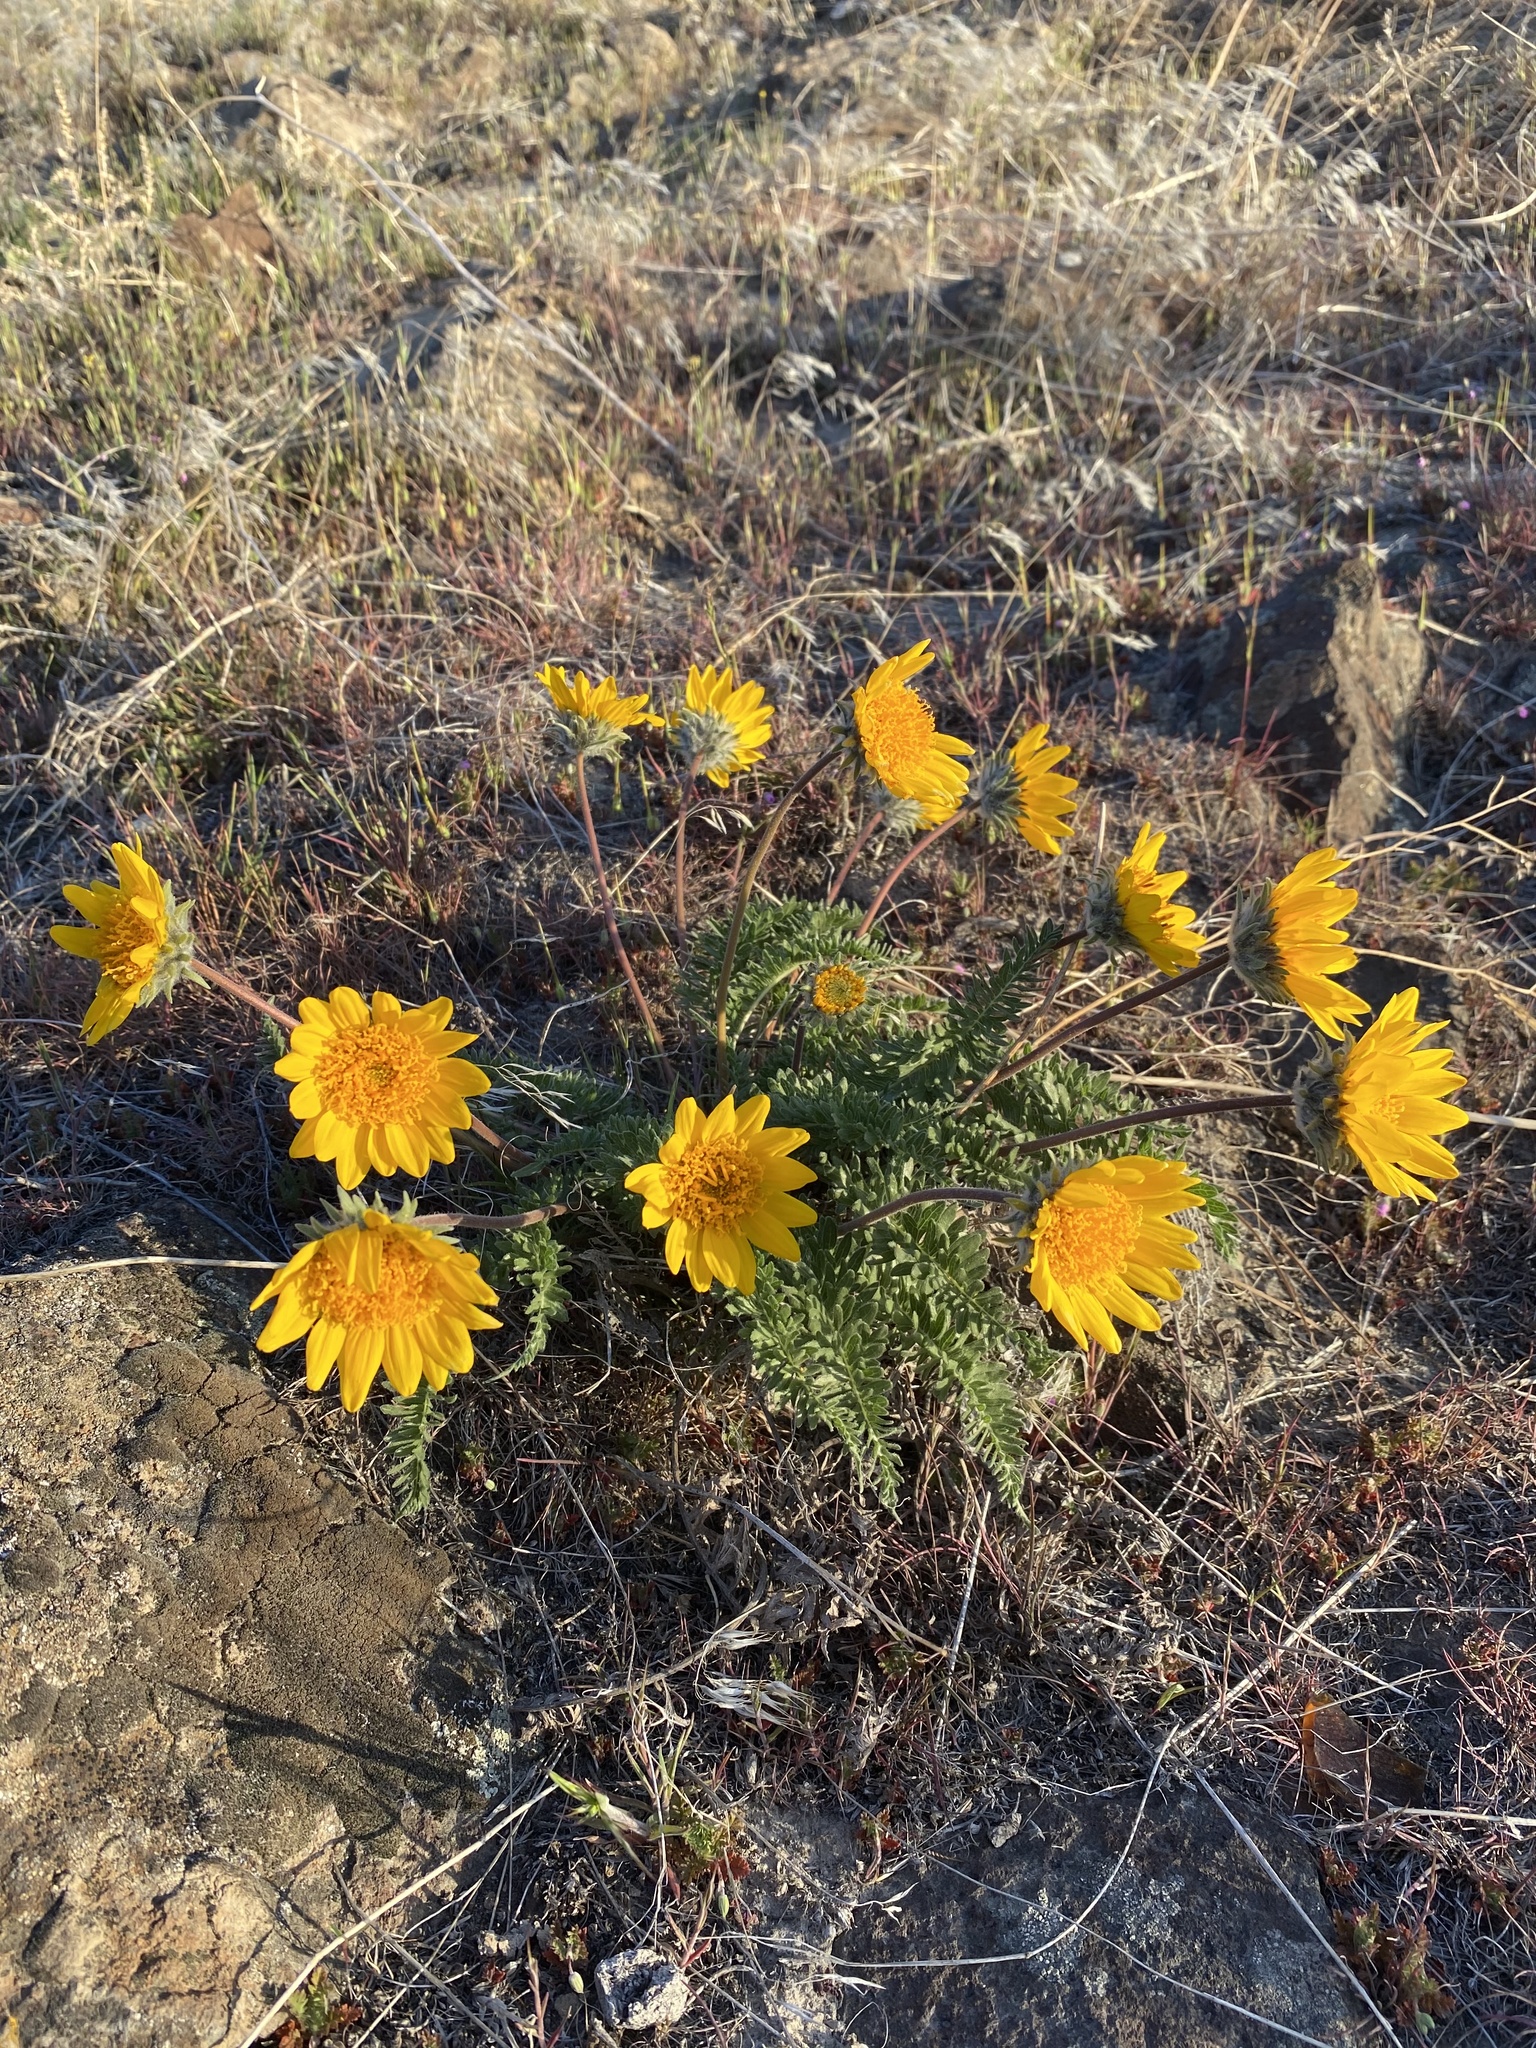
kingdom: Plantae
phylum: Tracheophyta
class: Magnoliopsida
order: Asterales
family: Asteraceae
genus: Balsamorhiza
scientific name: Balsamorhiza hookeri
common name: Hooker's balsamroot
